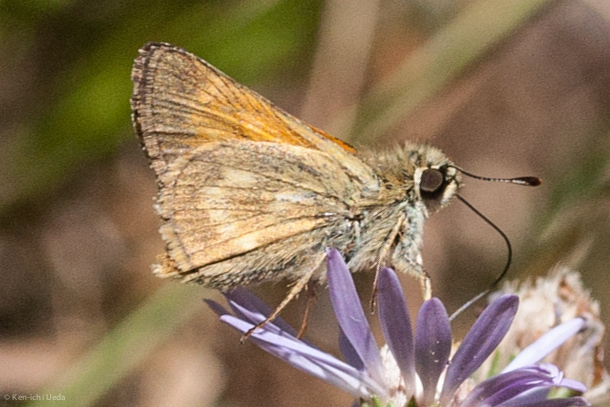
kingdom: Animalia
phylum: Arthropoda
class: Insecta
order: Lepidoptera
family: Hesperiidae
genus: Polites
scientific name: Polites mystic
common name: Long dash
